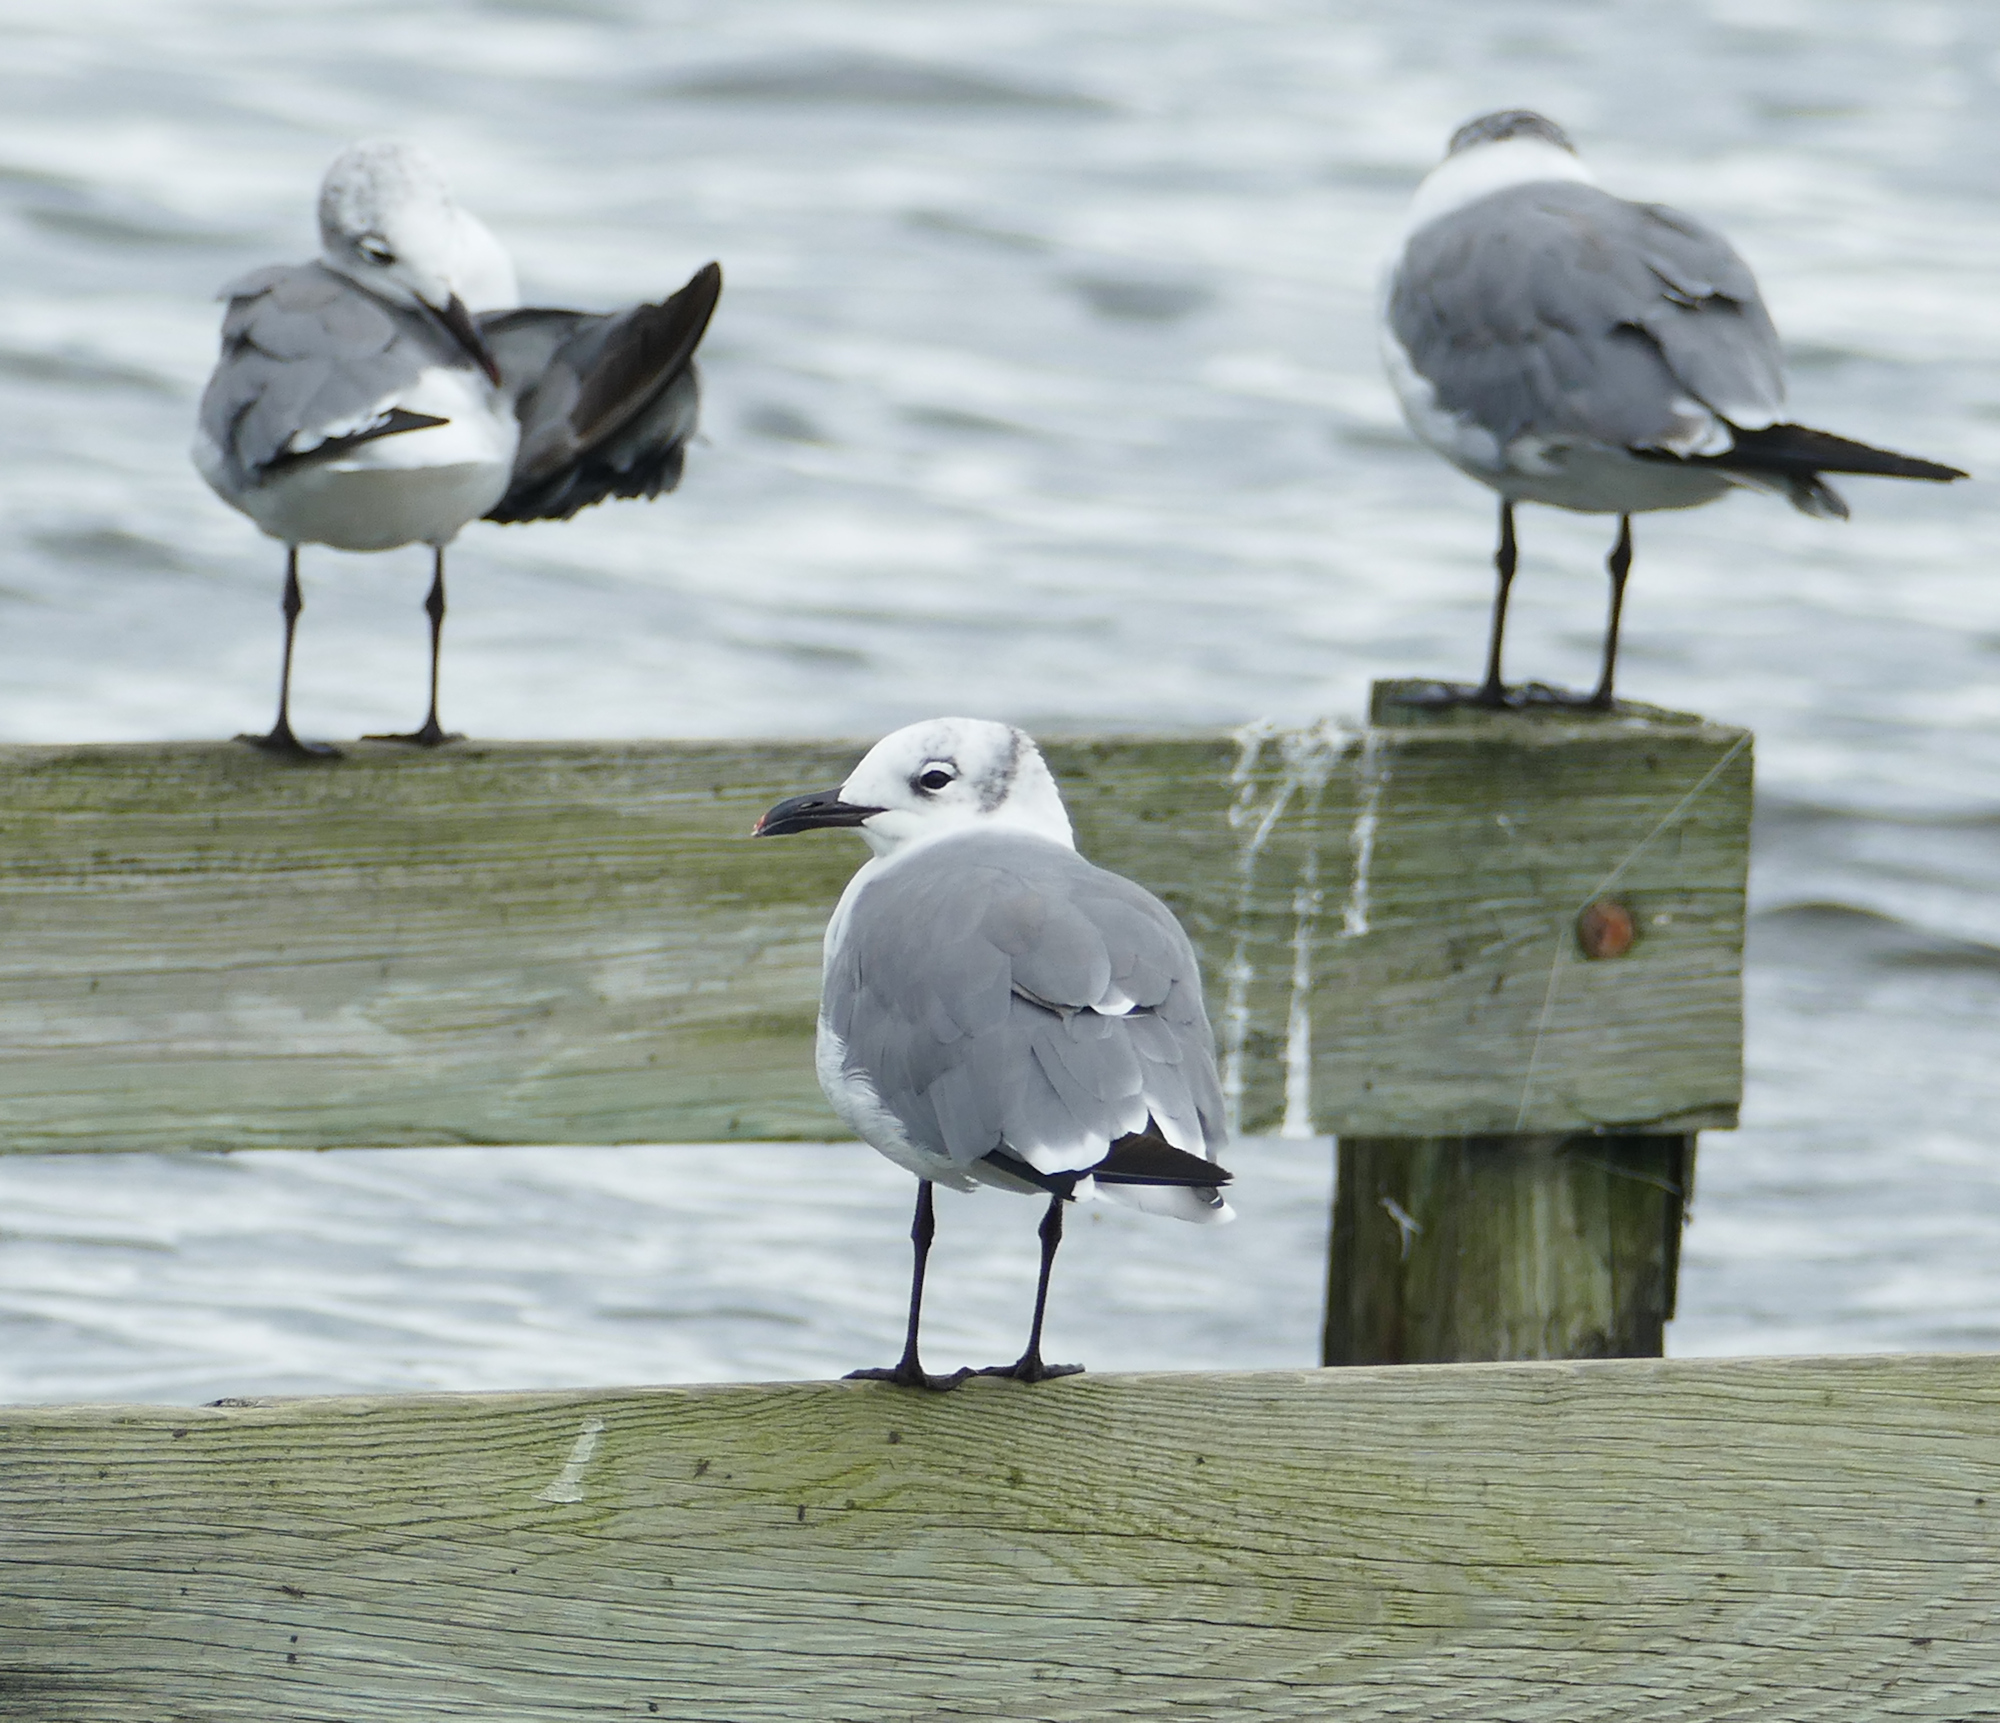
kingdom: Animalia
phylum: Chordata
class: Aves
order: Charadriiformes
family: Laridae
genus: Leucophaeus
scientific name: Leucophaeus atricilla
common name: Laughing gull
